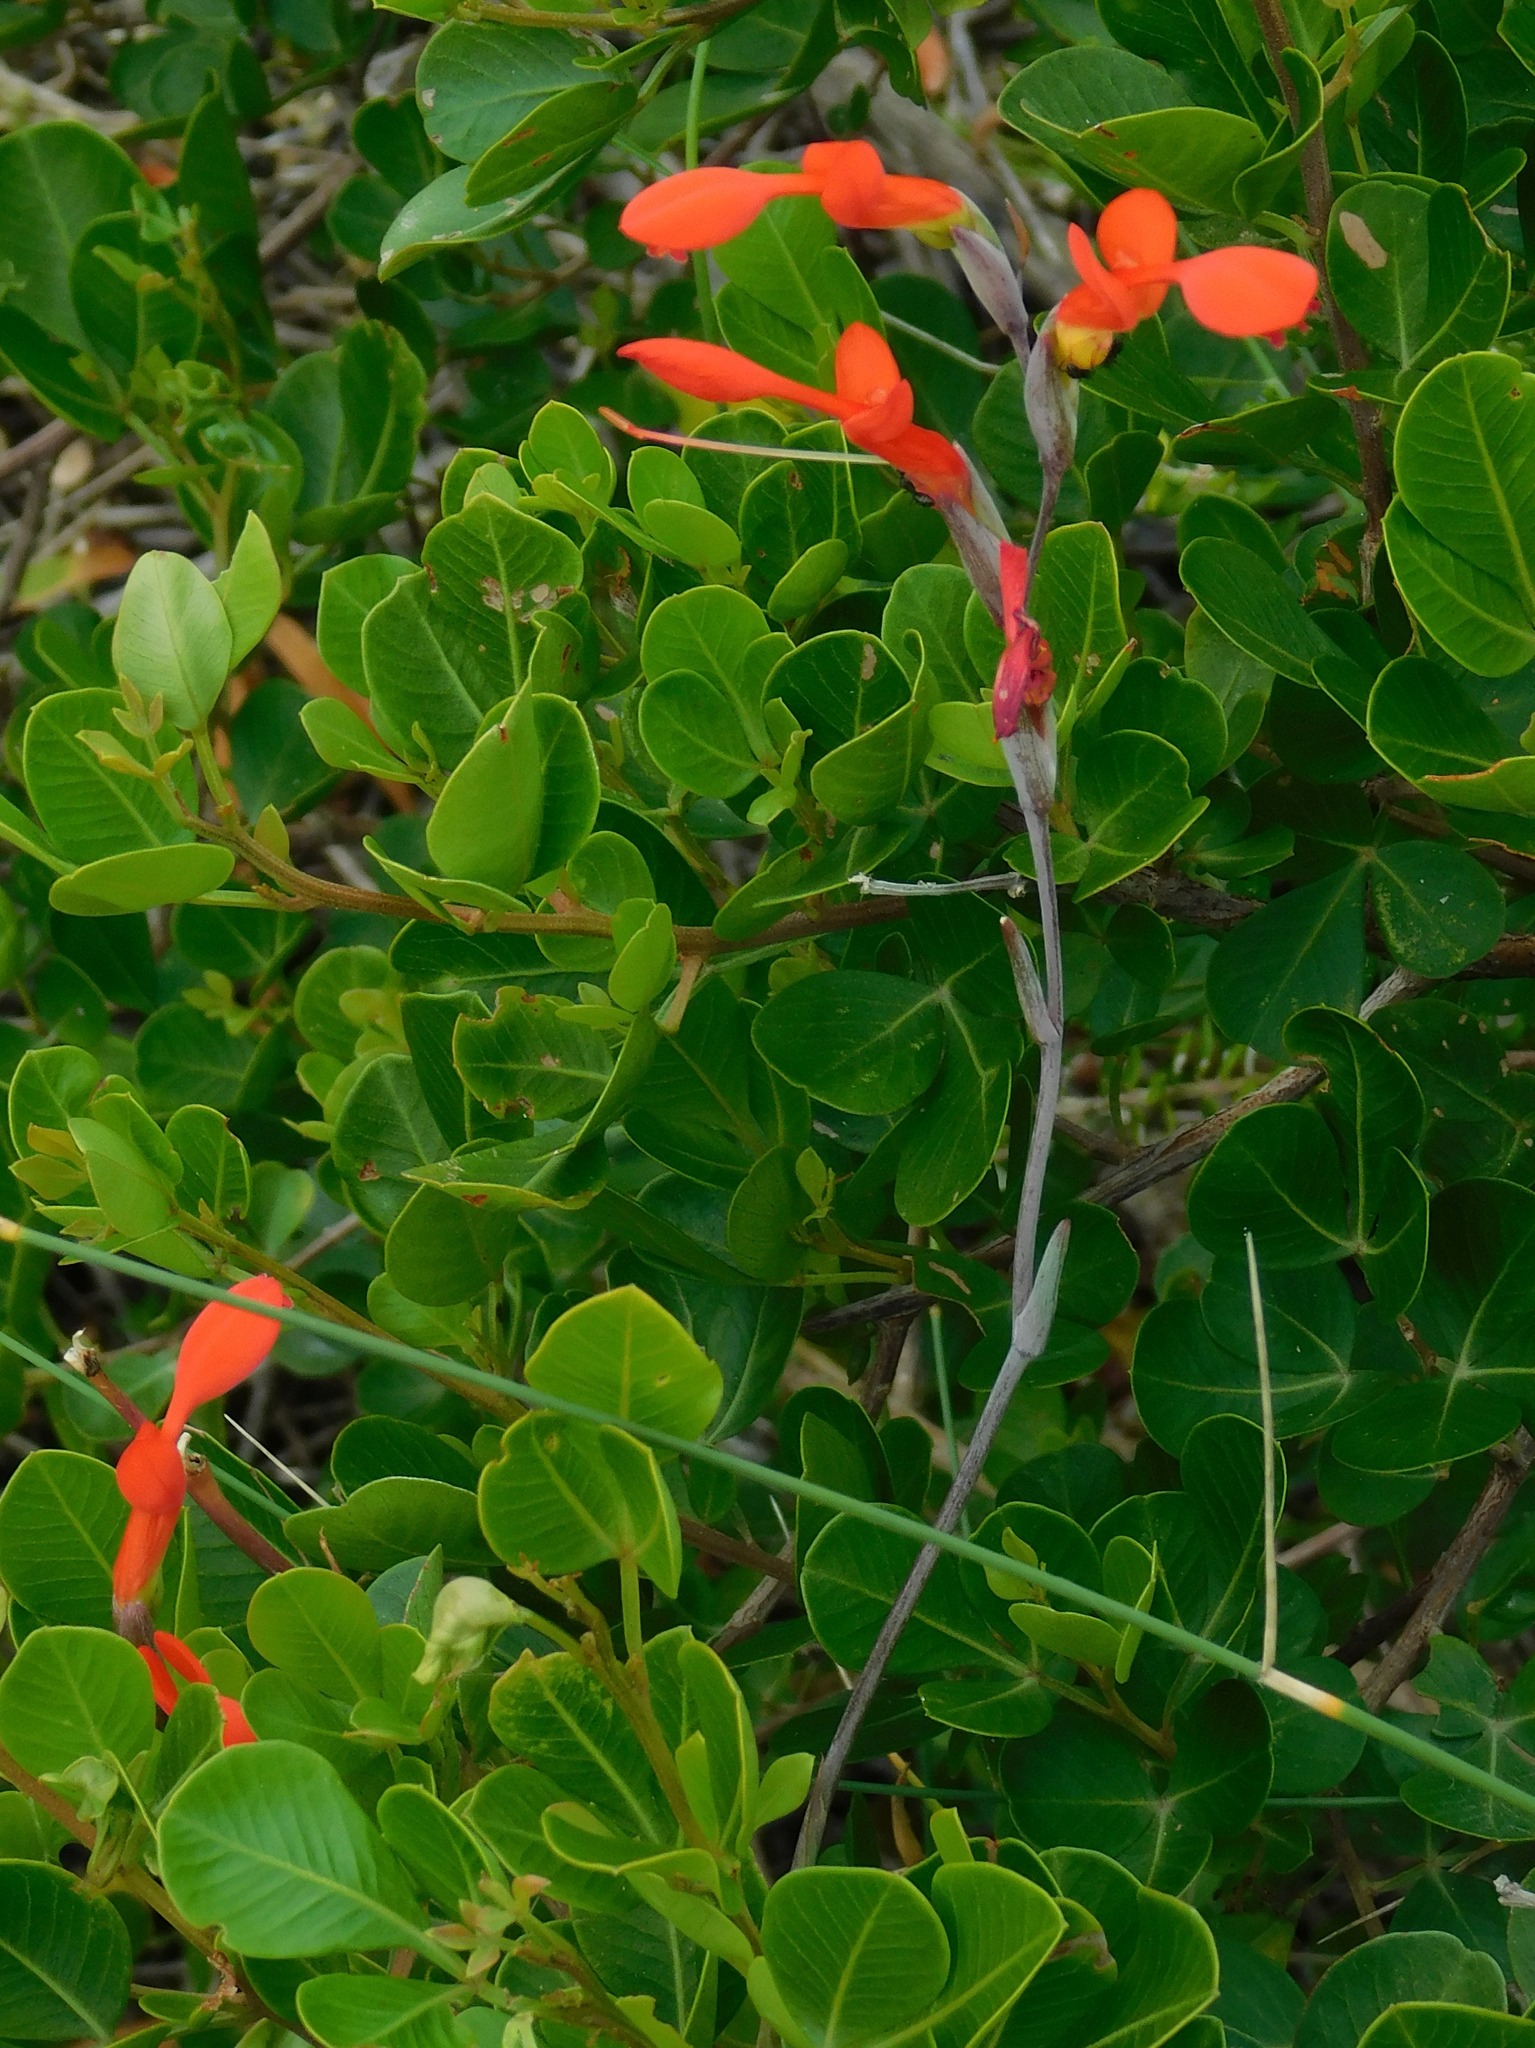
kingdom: Plantae
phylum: Tracheophyta
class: Liliopsida
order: Asparagales
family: Iridaceae
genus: Gladiolus
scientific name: Gladiolus cunonius
